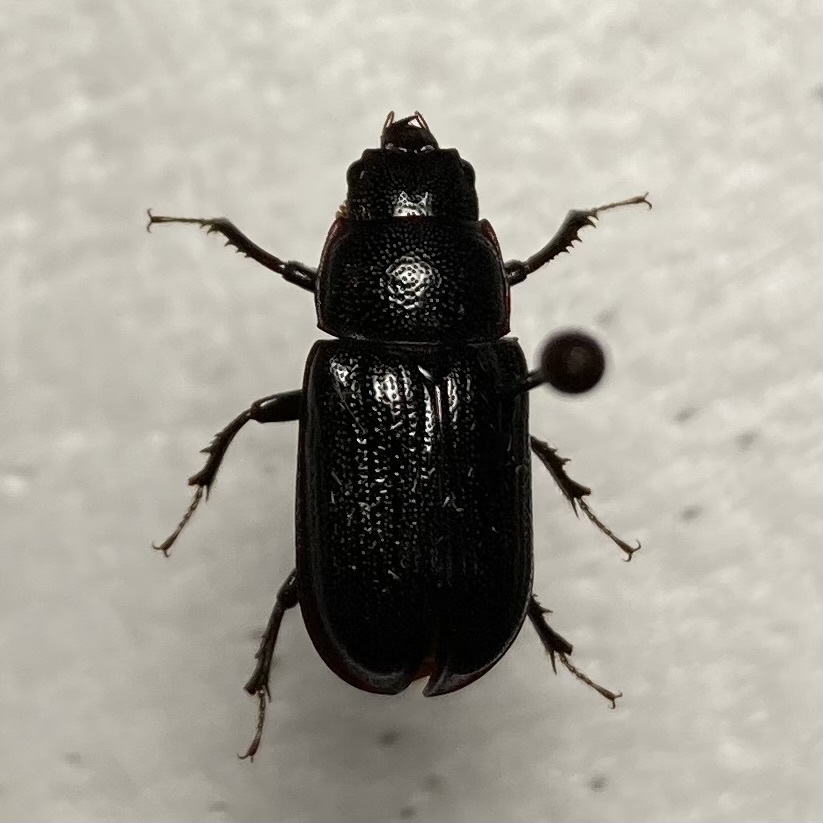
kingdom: Animalia
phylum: Arthropoda
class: Insecta
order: Coleoptera
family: Lucanidae
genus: Ceruchus
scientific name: Ceruchus piceus
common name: Red-rot decay stag beetle
